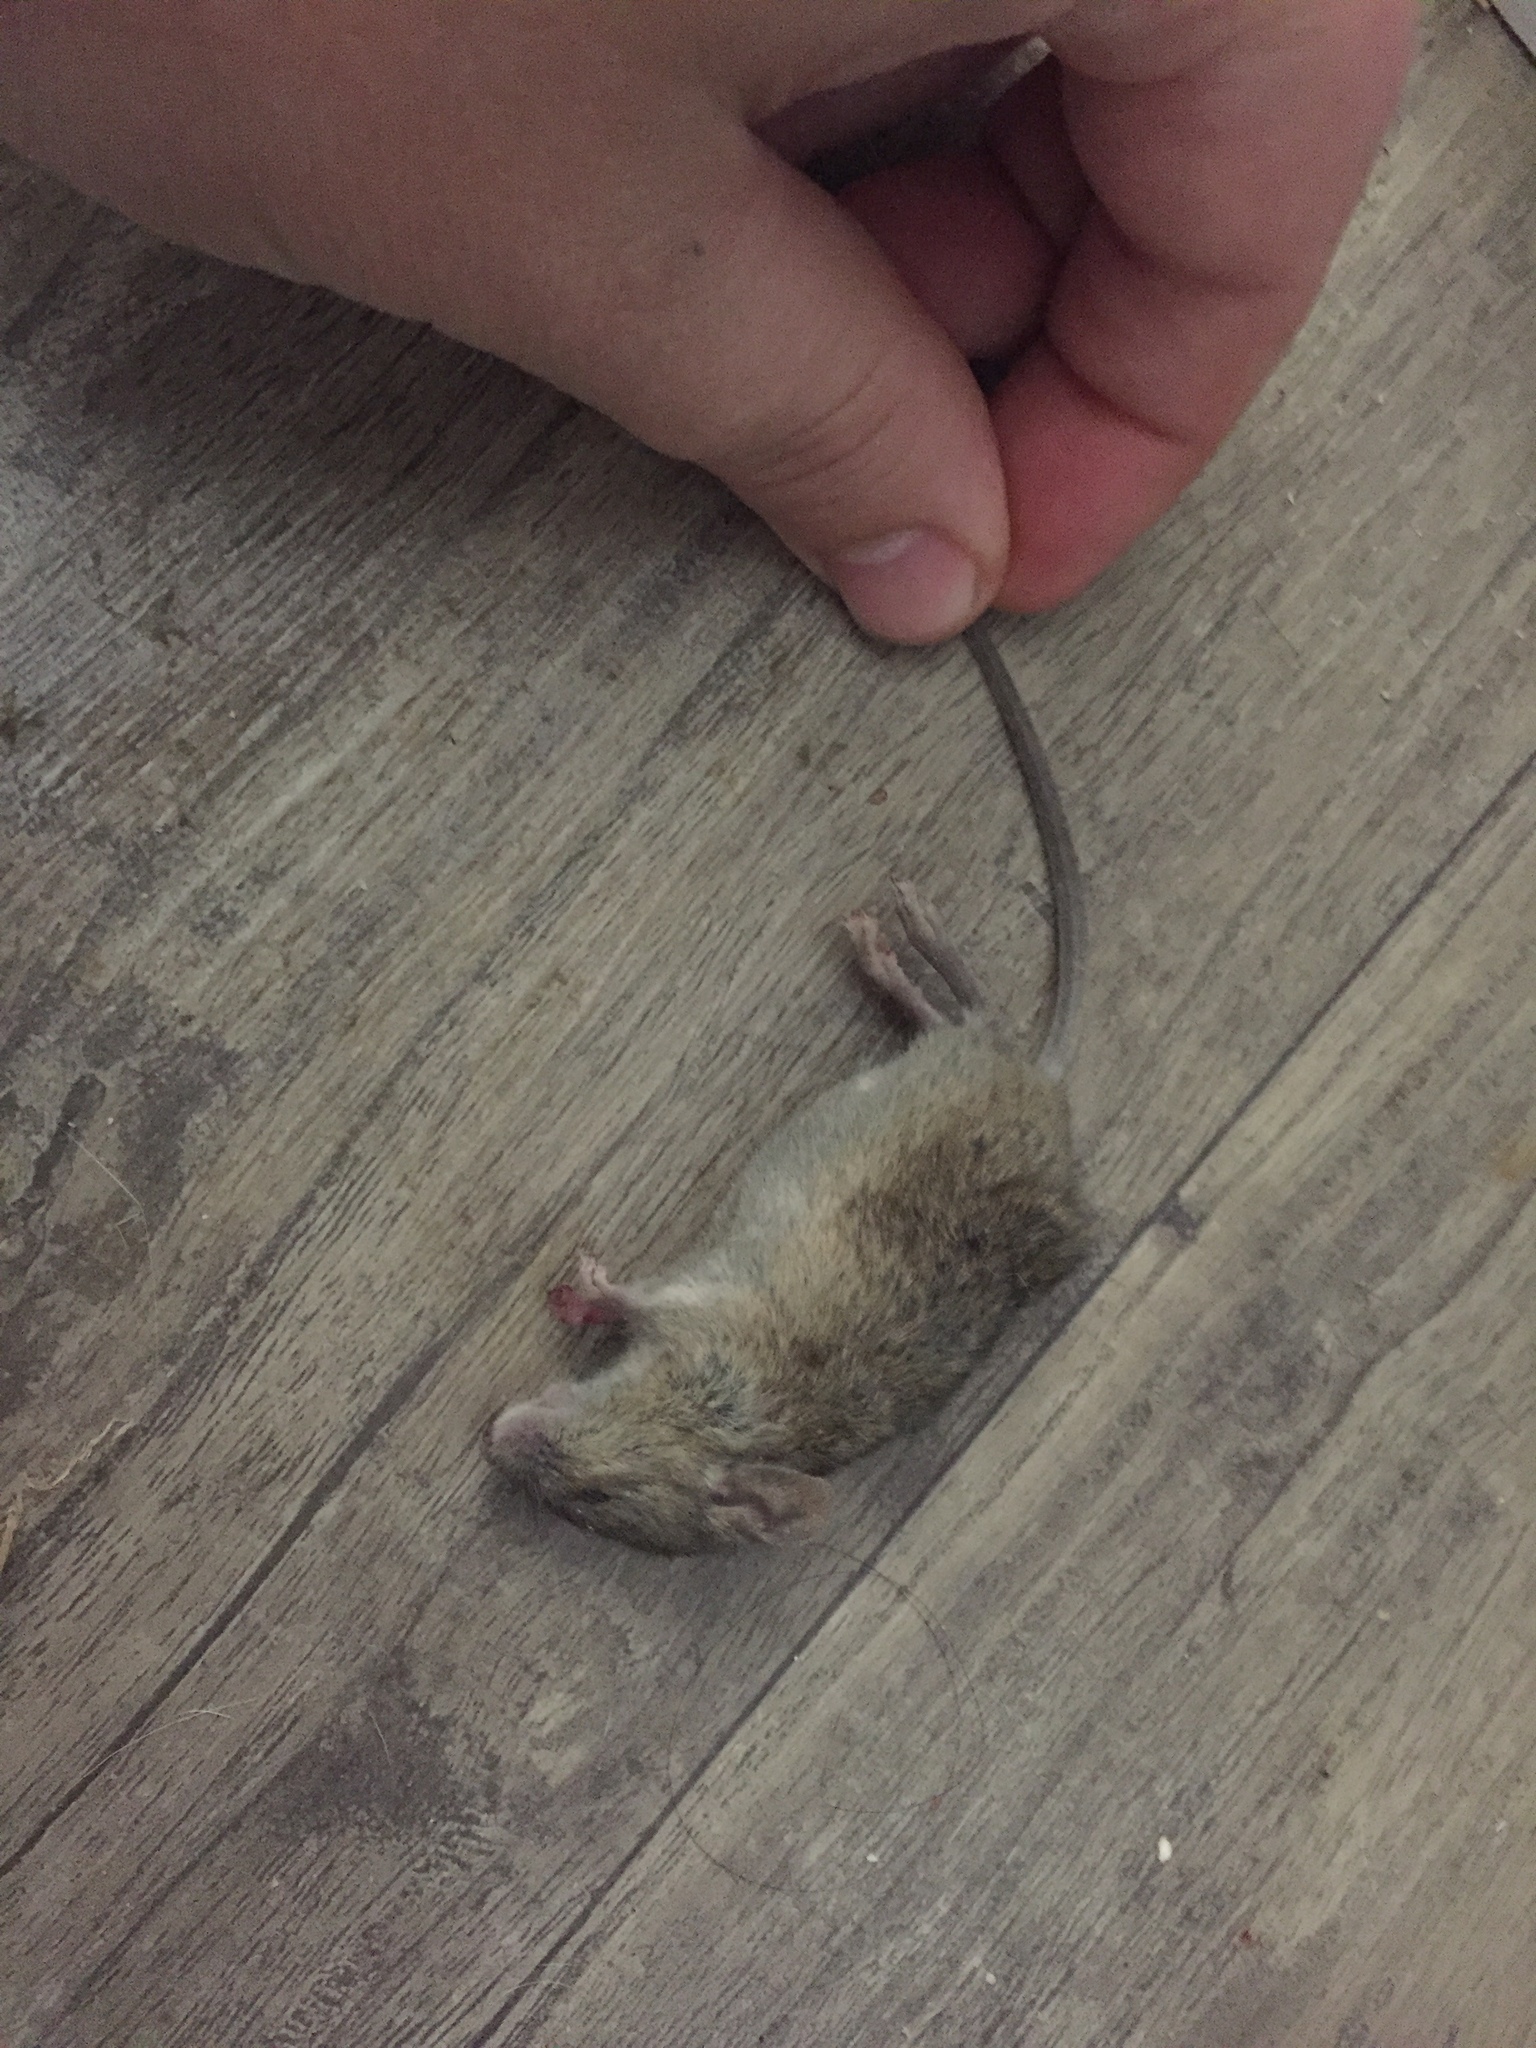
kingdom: Animalia
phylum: Chordata
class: Mammalia
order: Rodentia
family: Muridae
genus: Mus
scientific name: Mus musculus
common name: House mouse
